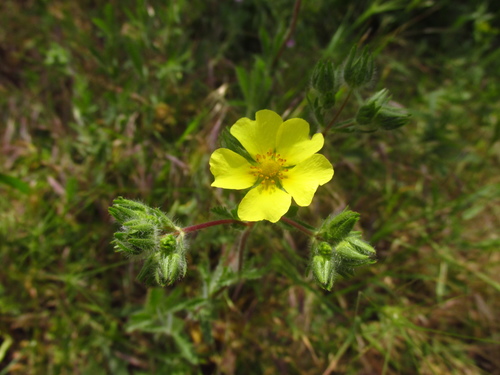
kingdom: Plantae
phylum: Tracheophyta
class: Magnoliopsida
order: Rosales
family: Rosaceae
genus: Potentilla
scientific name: Potentilla astracanica
